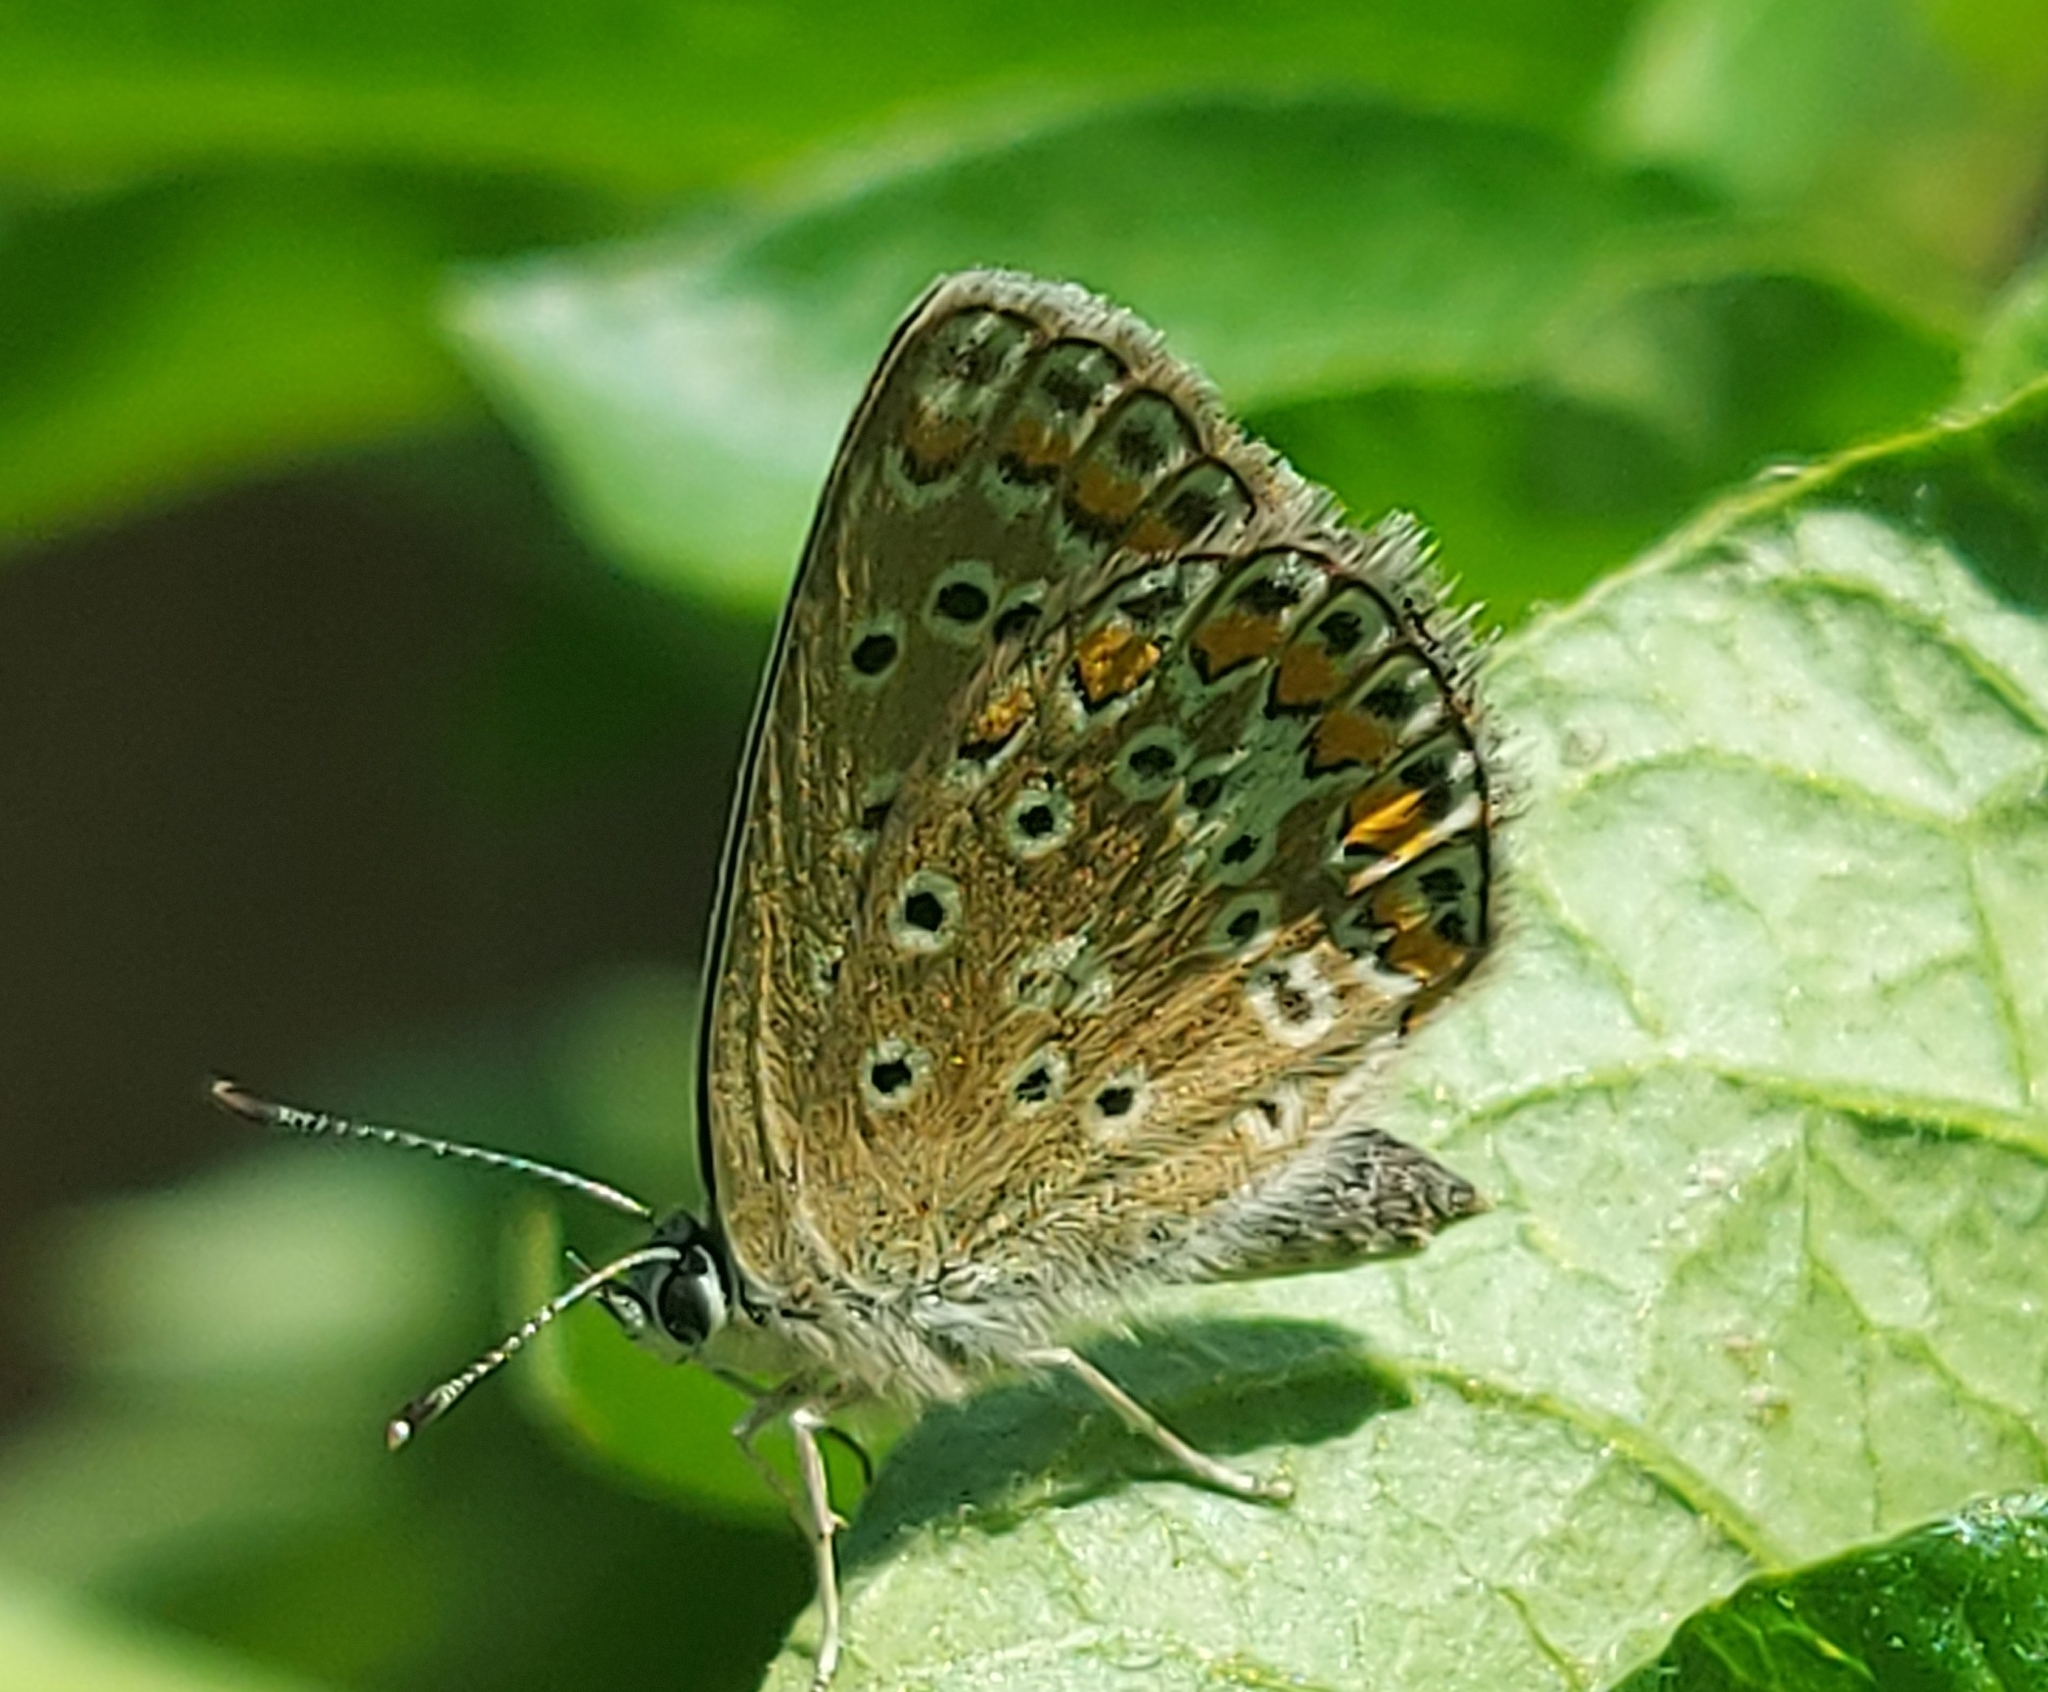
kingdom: Animalia
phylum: Arthropoda
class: Insecta
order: Lepidoptera
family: Lycaenidae
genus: Polyommatus
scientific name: Polyommatus icarus
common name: Common blue
